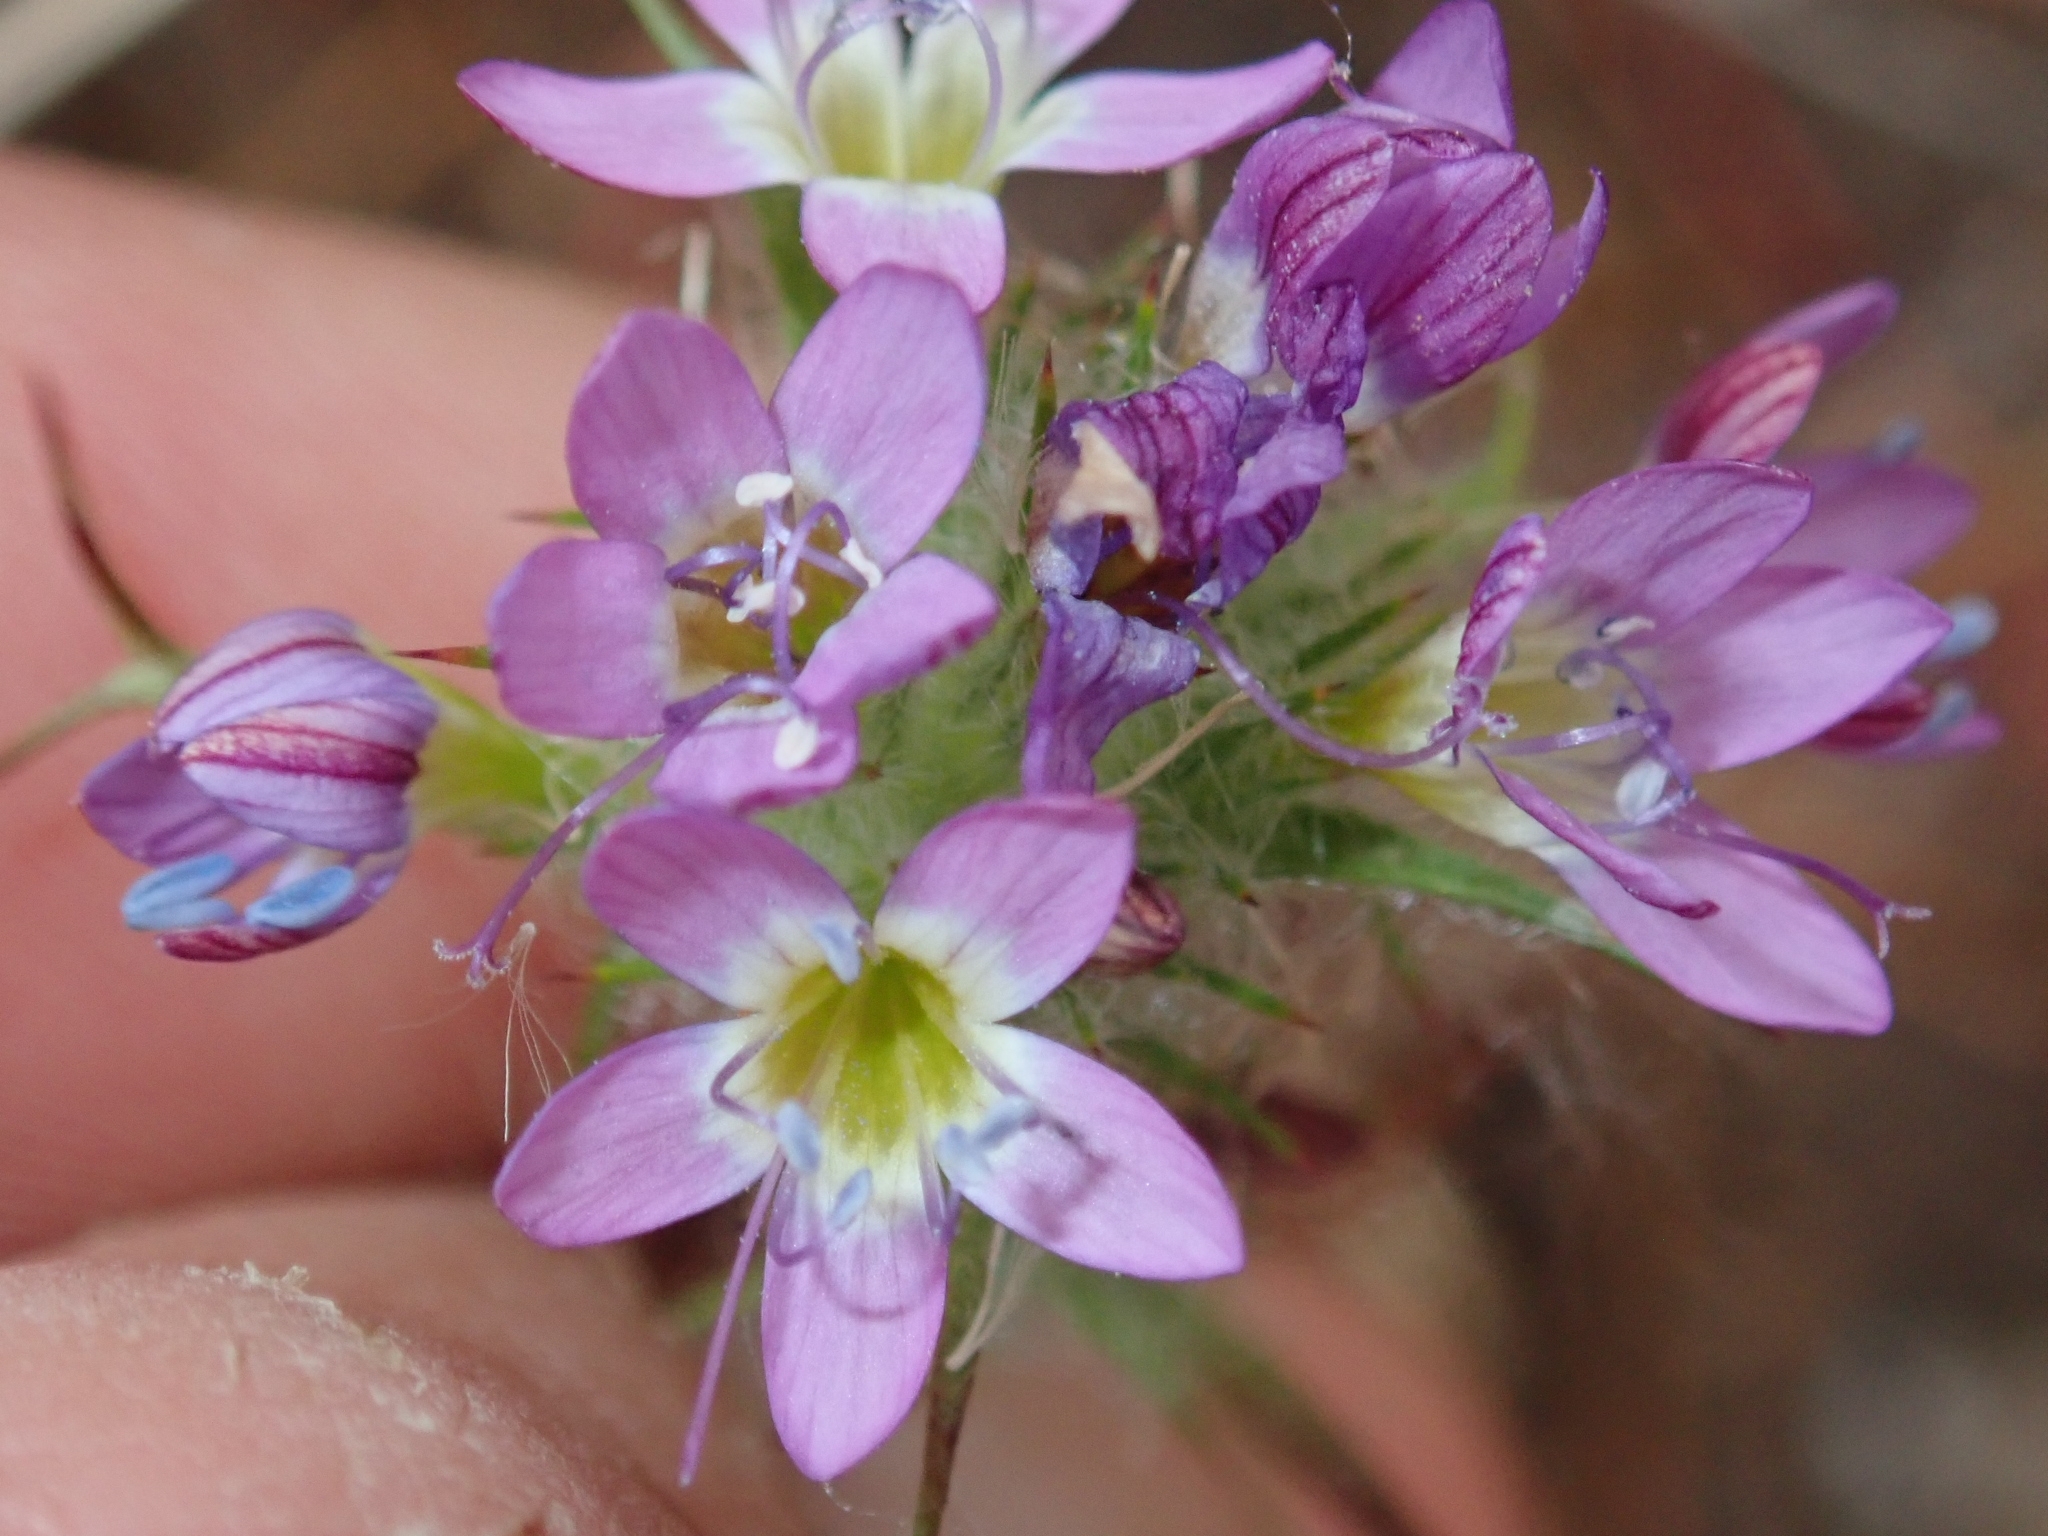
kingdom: Plantae
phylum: Tracheophyta
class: Magnoliopsida
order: Ericales
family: Polemoniaceae
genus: Navarretia
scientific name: Navarretia hamata
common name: Hooked navarretia
